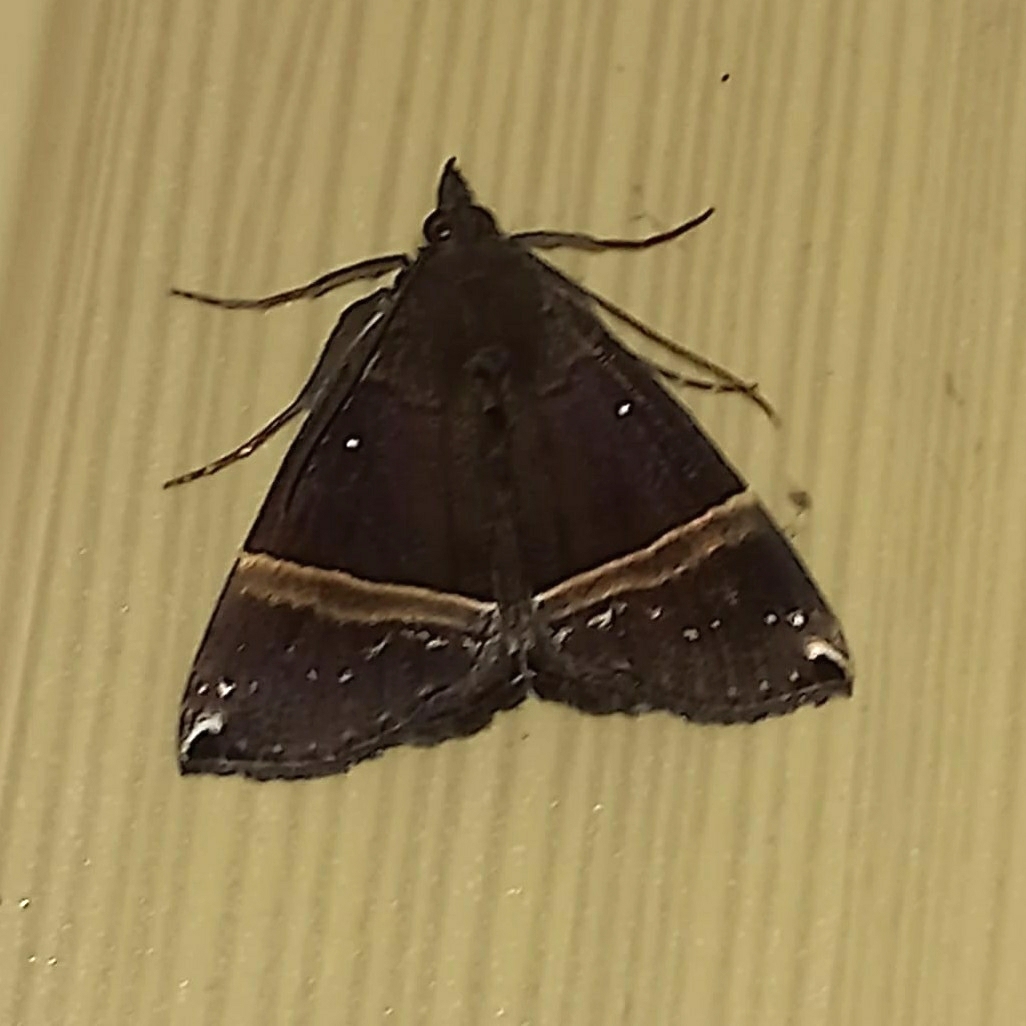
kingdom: Animalia
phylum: Arthropoda
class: Insecta
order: Lepidoptera
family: Erebidae
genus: Hypena
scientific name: Hypena zarabena
